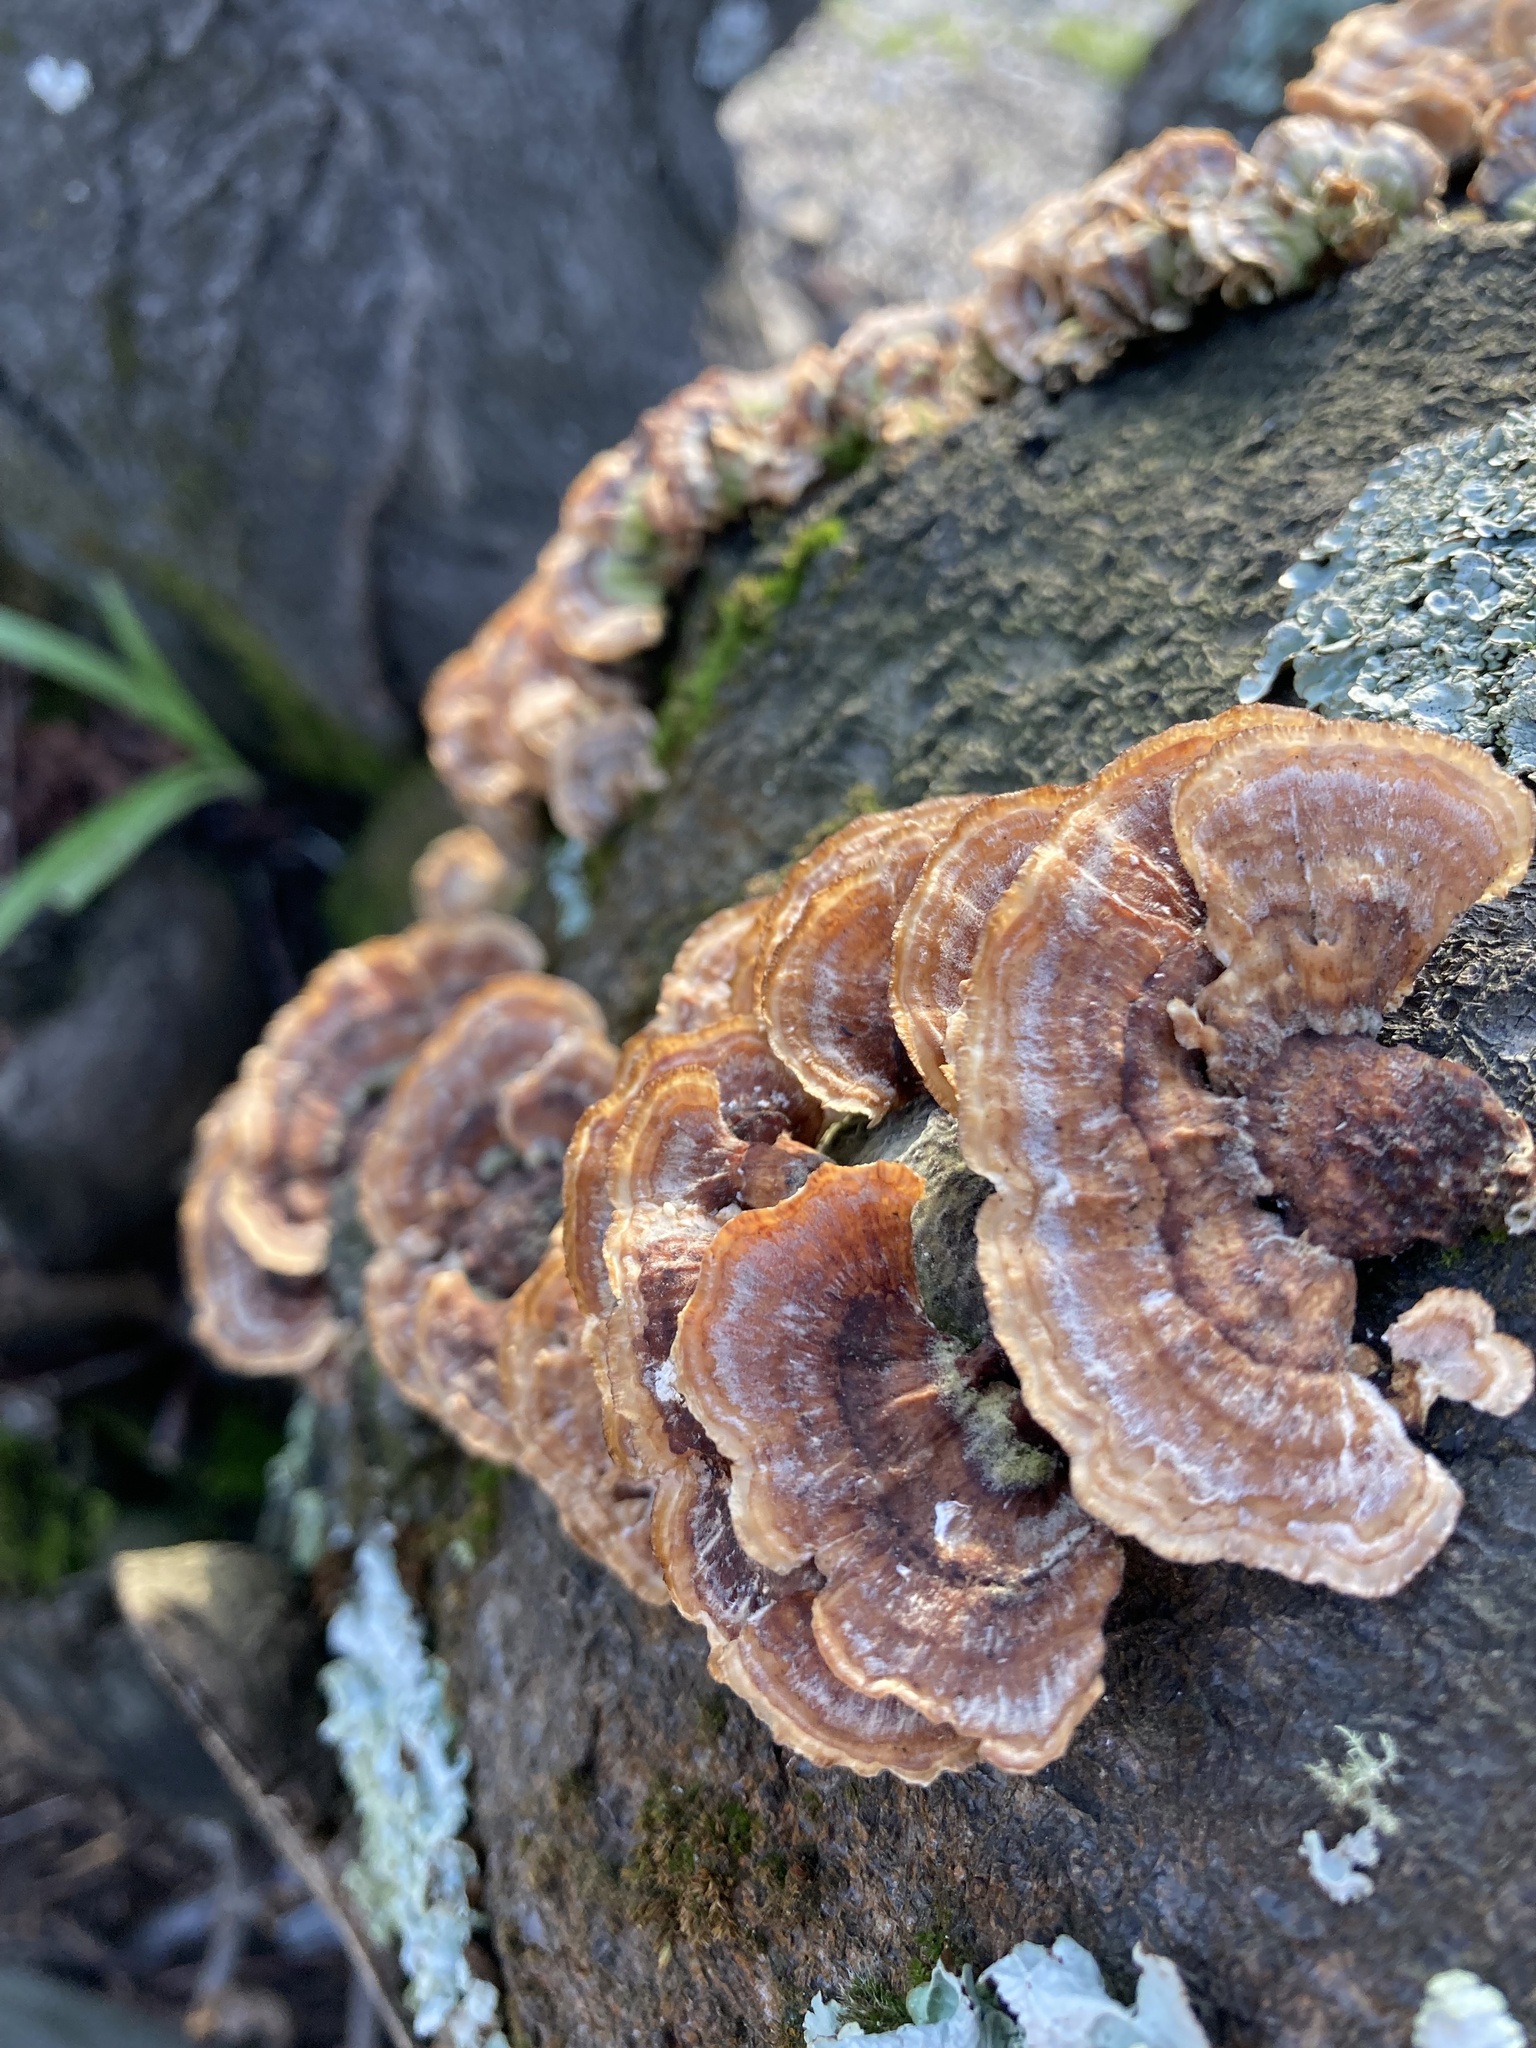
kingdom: Fungi
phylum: Basidiomycota
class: Agaricomycetes
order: Polyporales
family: Polyporaceae
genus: Trametes
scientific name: Trametes versicolor
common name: Turkeytail
